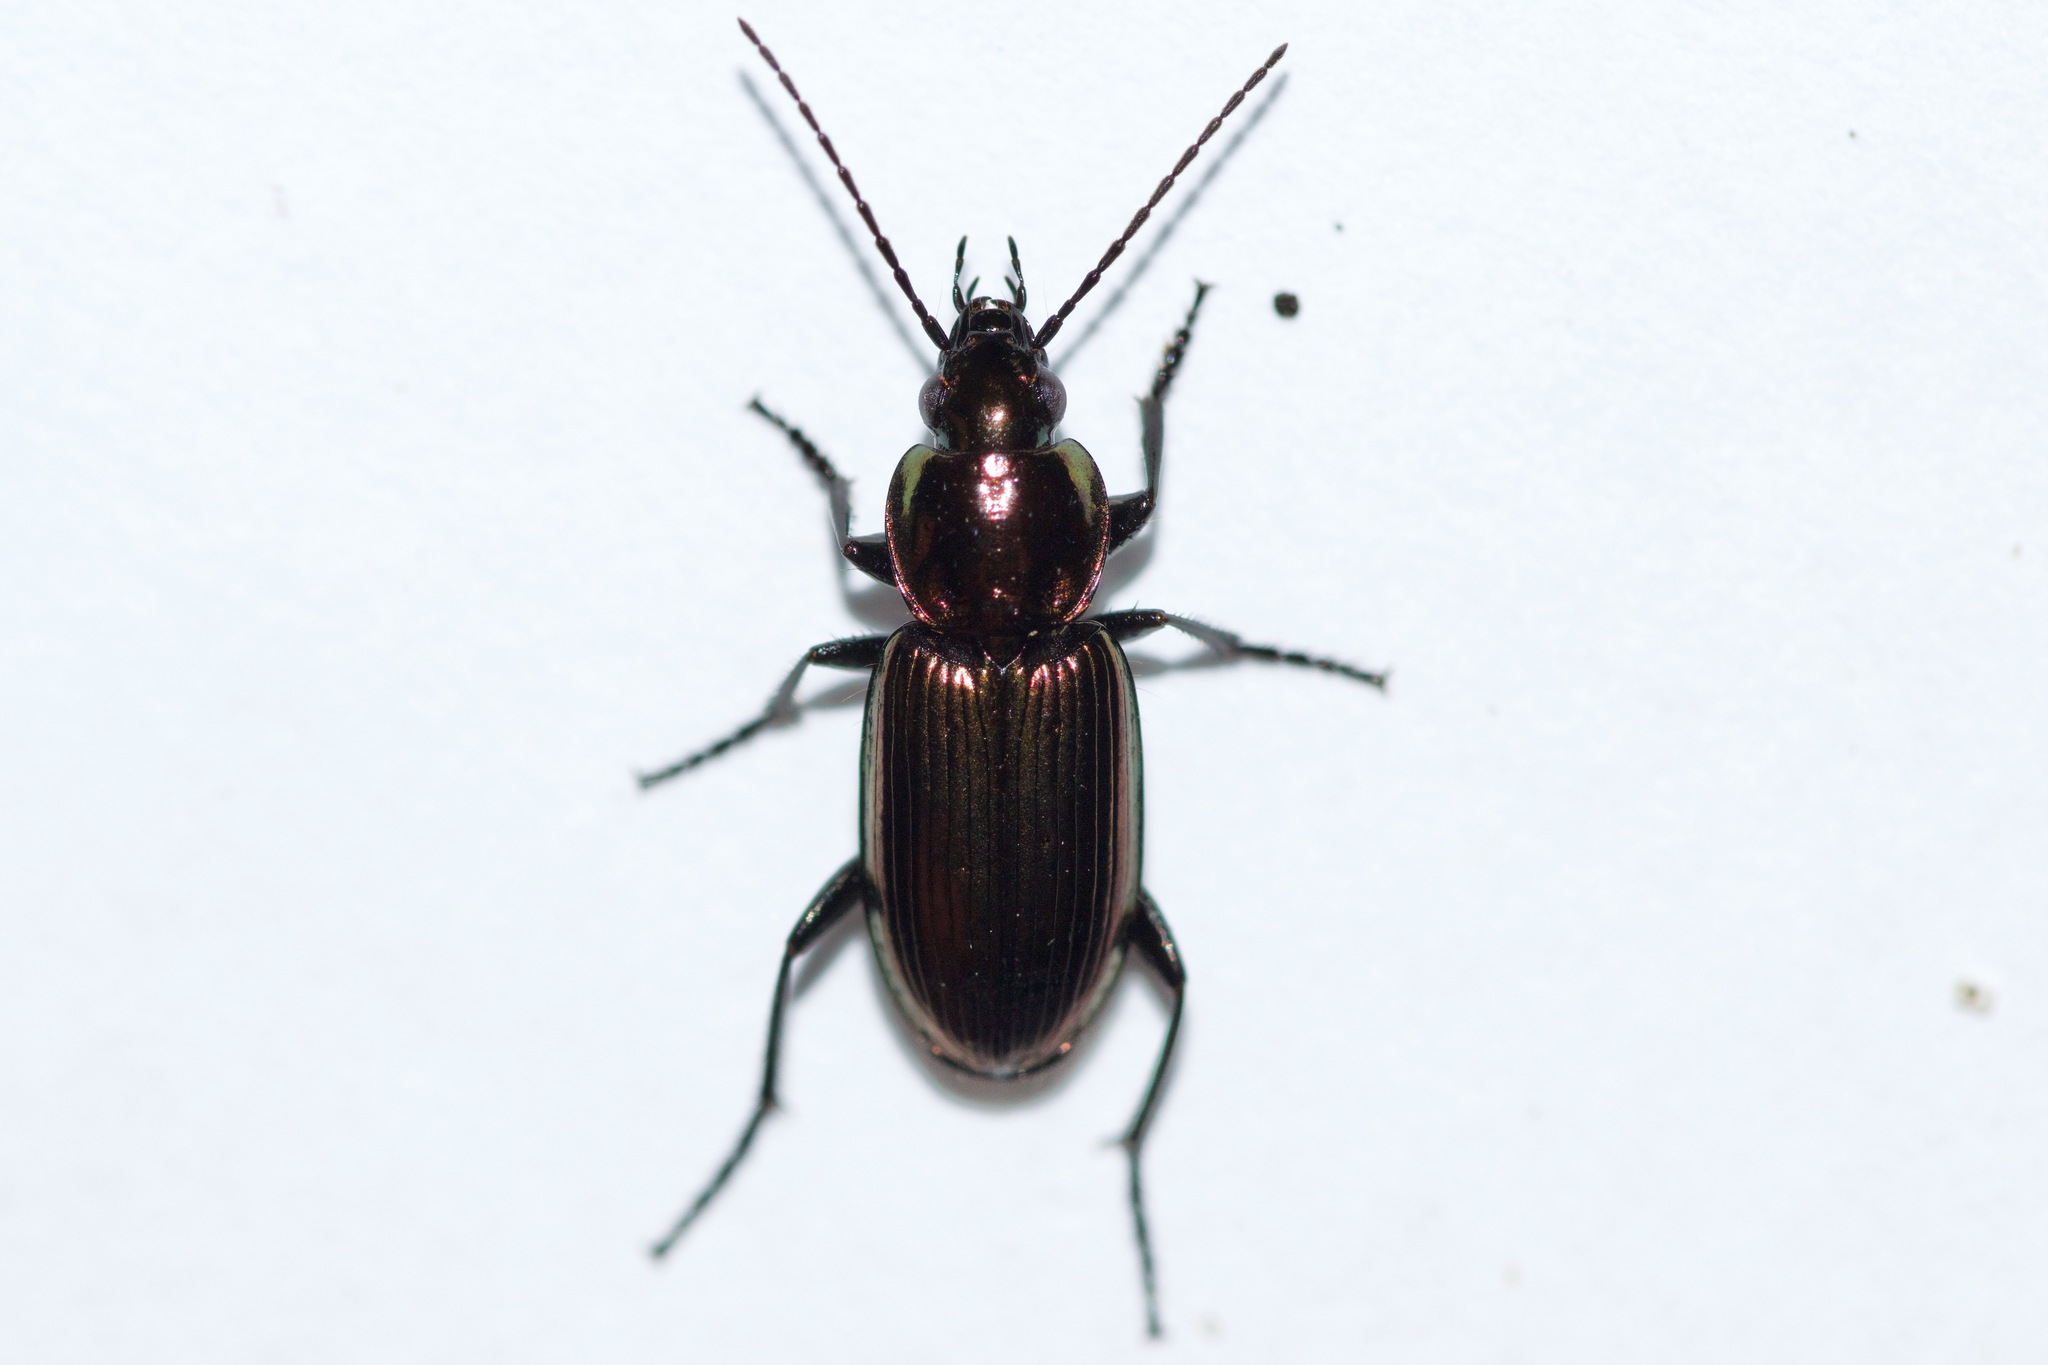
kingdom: Animalia
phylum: Arthropoda
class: Insecta
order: Coleoptera
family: Carabidae
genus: Agonum
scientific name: Agonum cupreum
